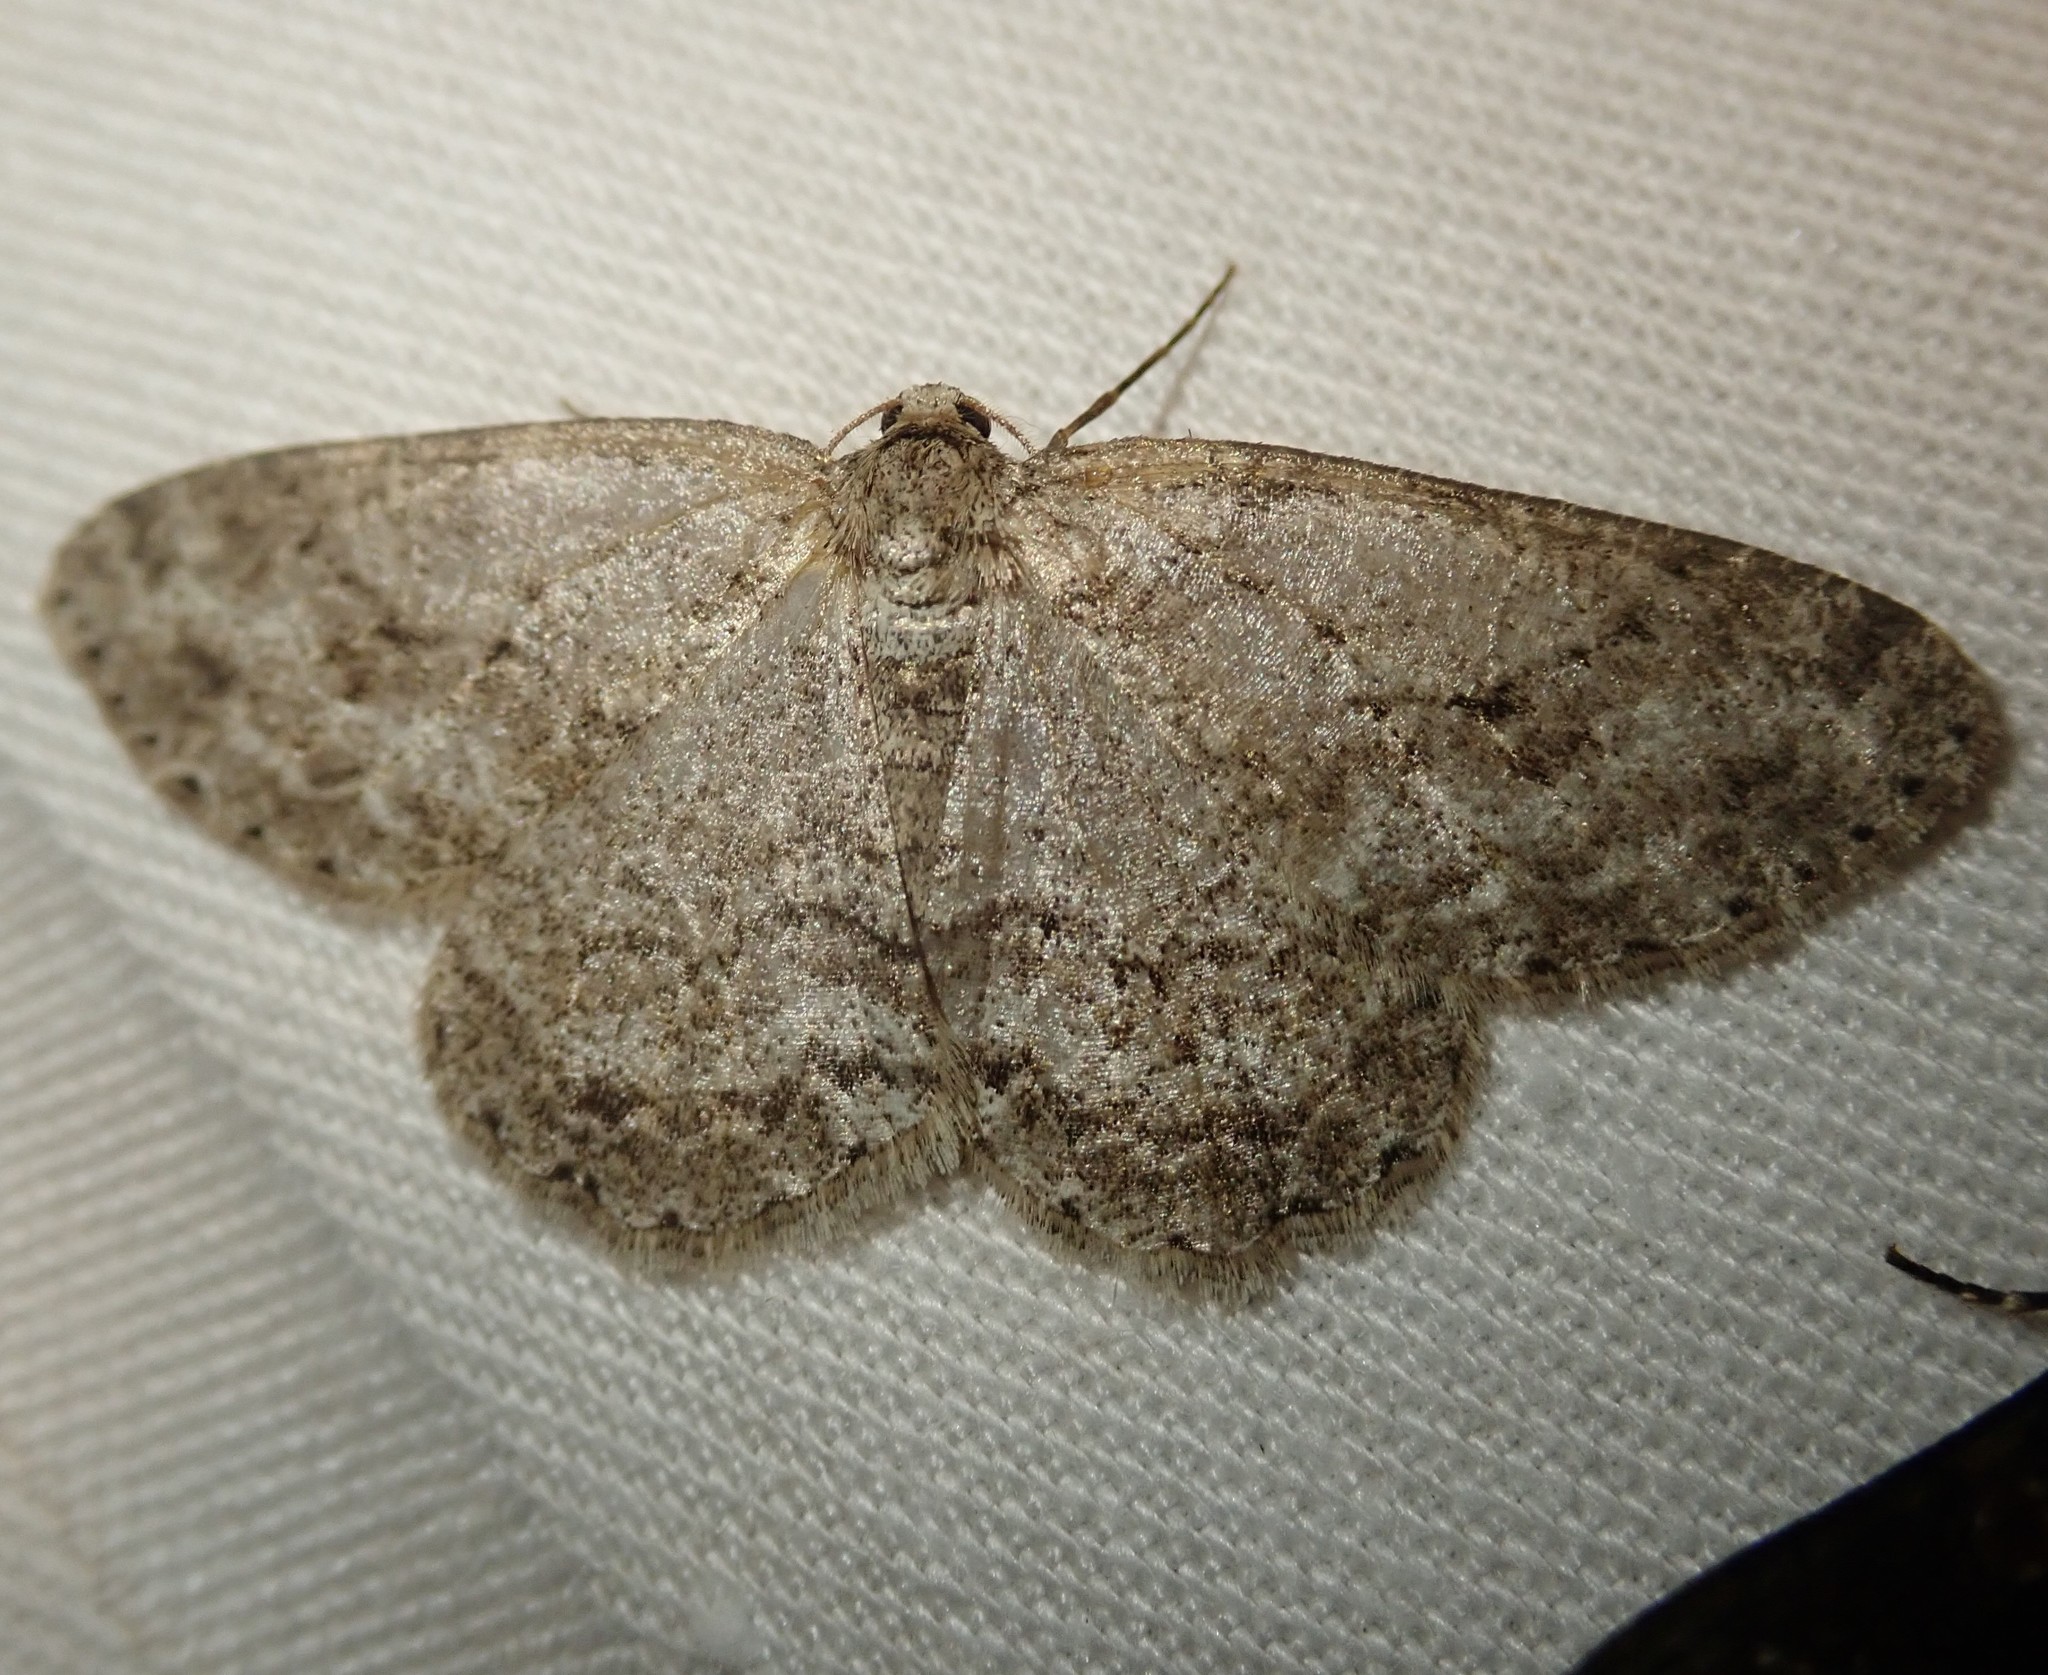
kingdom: Animalia
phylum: Arthropoda
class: Insecta
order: Lepidoptera
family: Geometridae
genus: Ectropis
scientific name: Ectropis crepuscularia
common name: Engrailed
